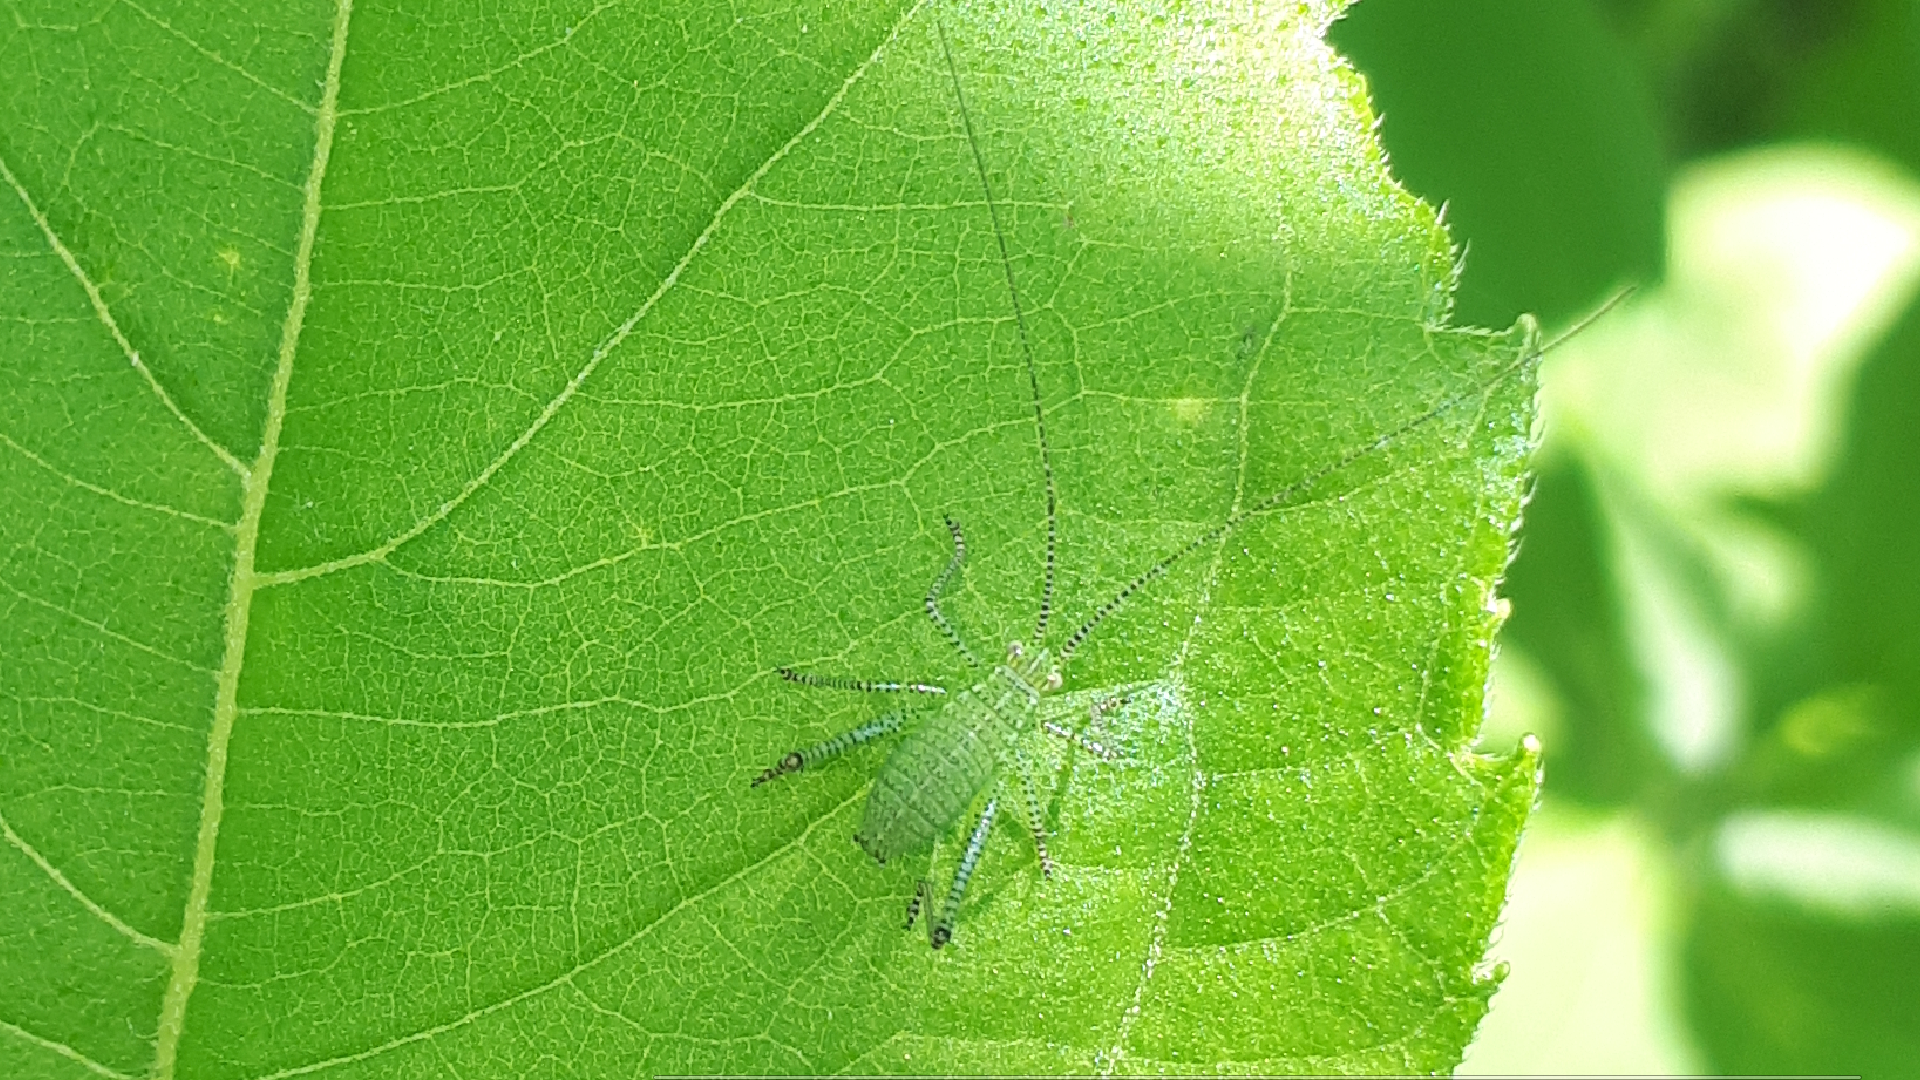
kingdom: Animalia
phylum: Arthropoda
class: Insecta
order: Orthoptera
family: Tettigoniidae
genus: Leptophyes
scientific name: Leptophyes punctatissima
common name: Speckled bush-cricket
